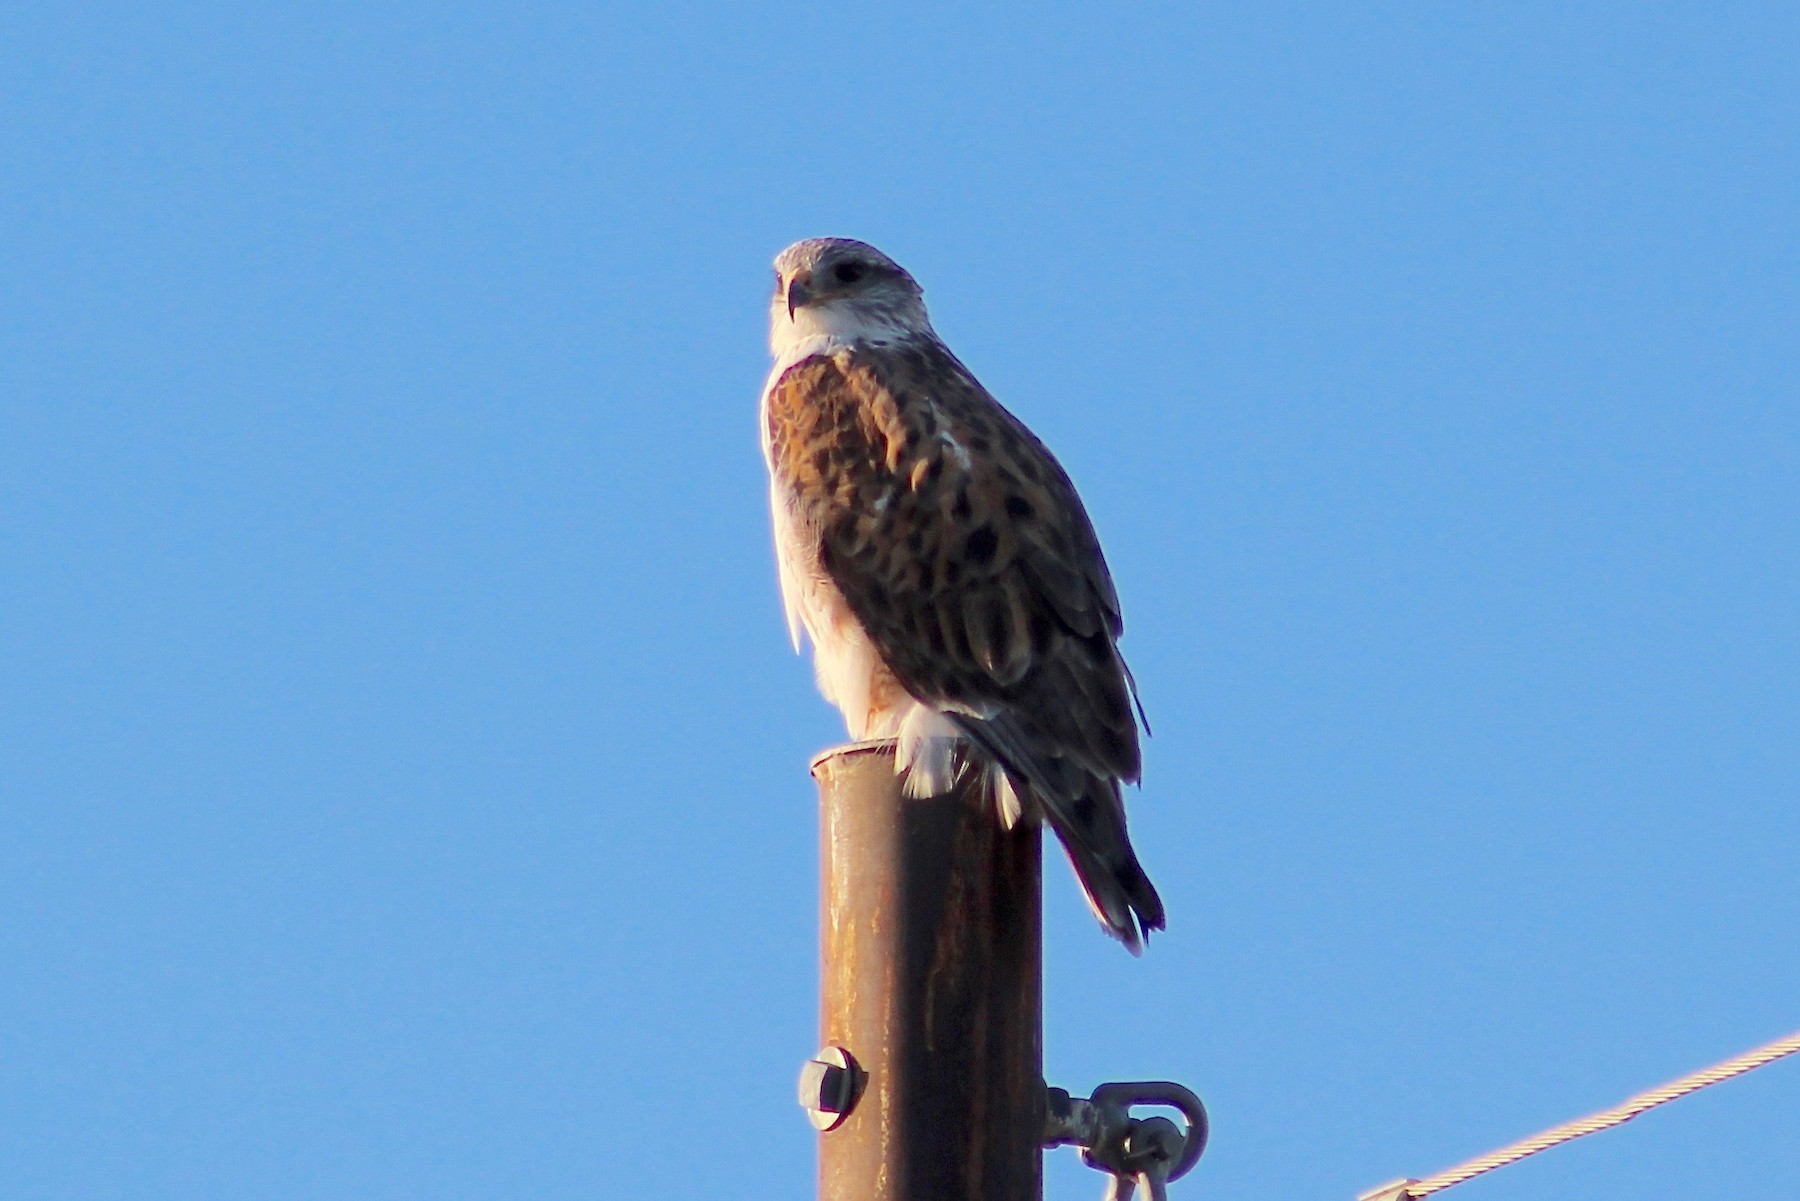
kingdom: Animalia
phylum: Chordata
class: Aves
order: Accipitriformes
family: Accipitridae
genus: Buteo
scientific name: Buteo regalis
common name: Ferruginous hawk
